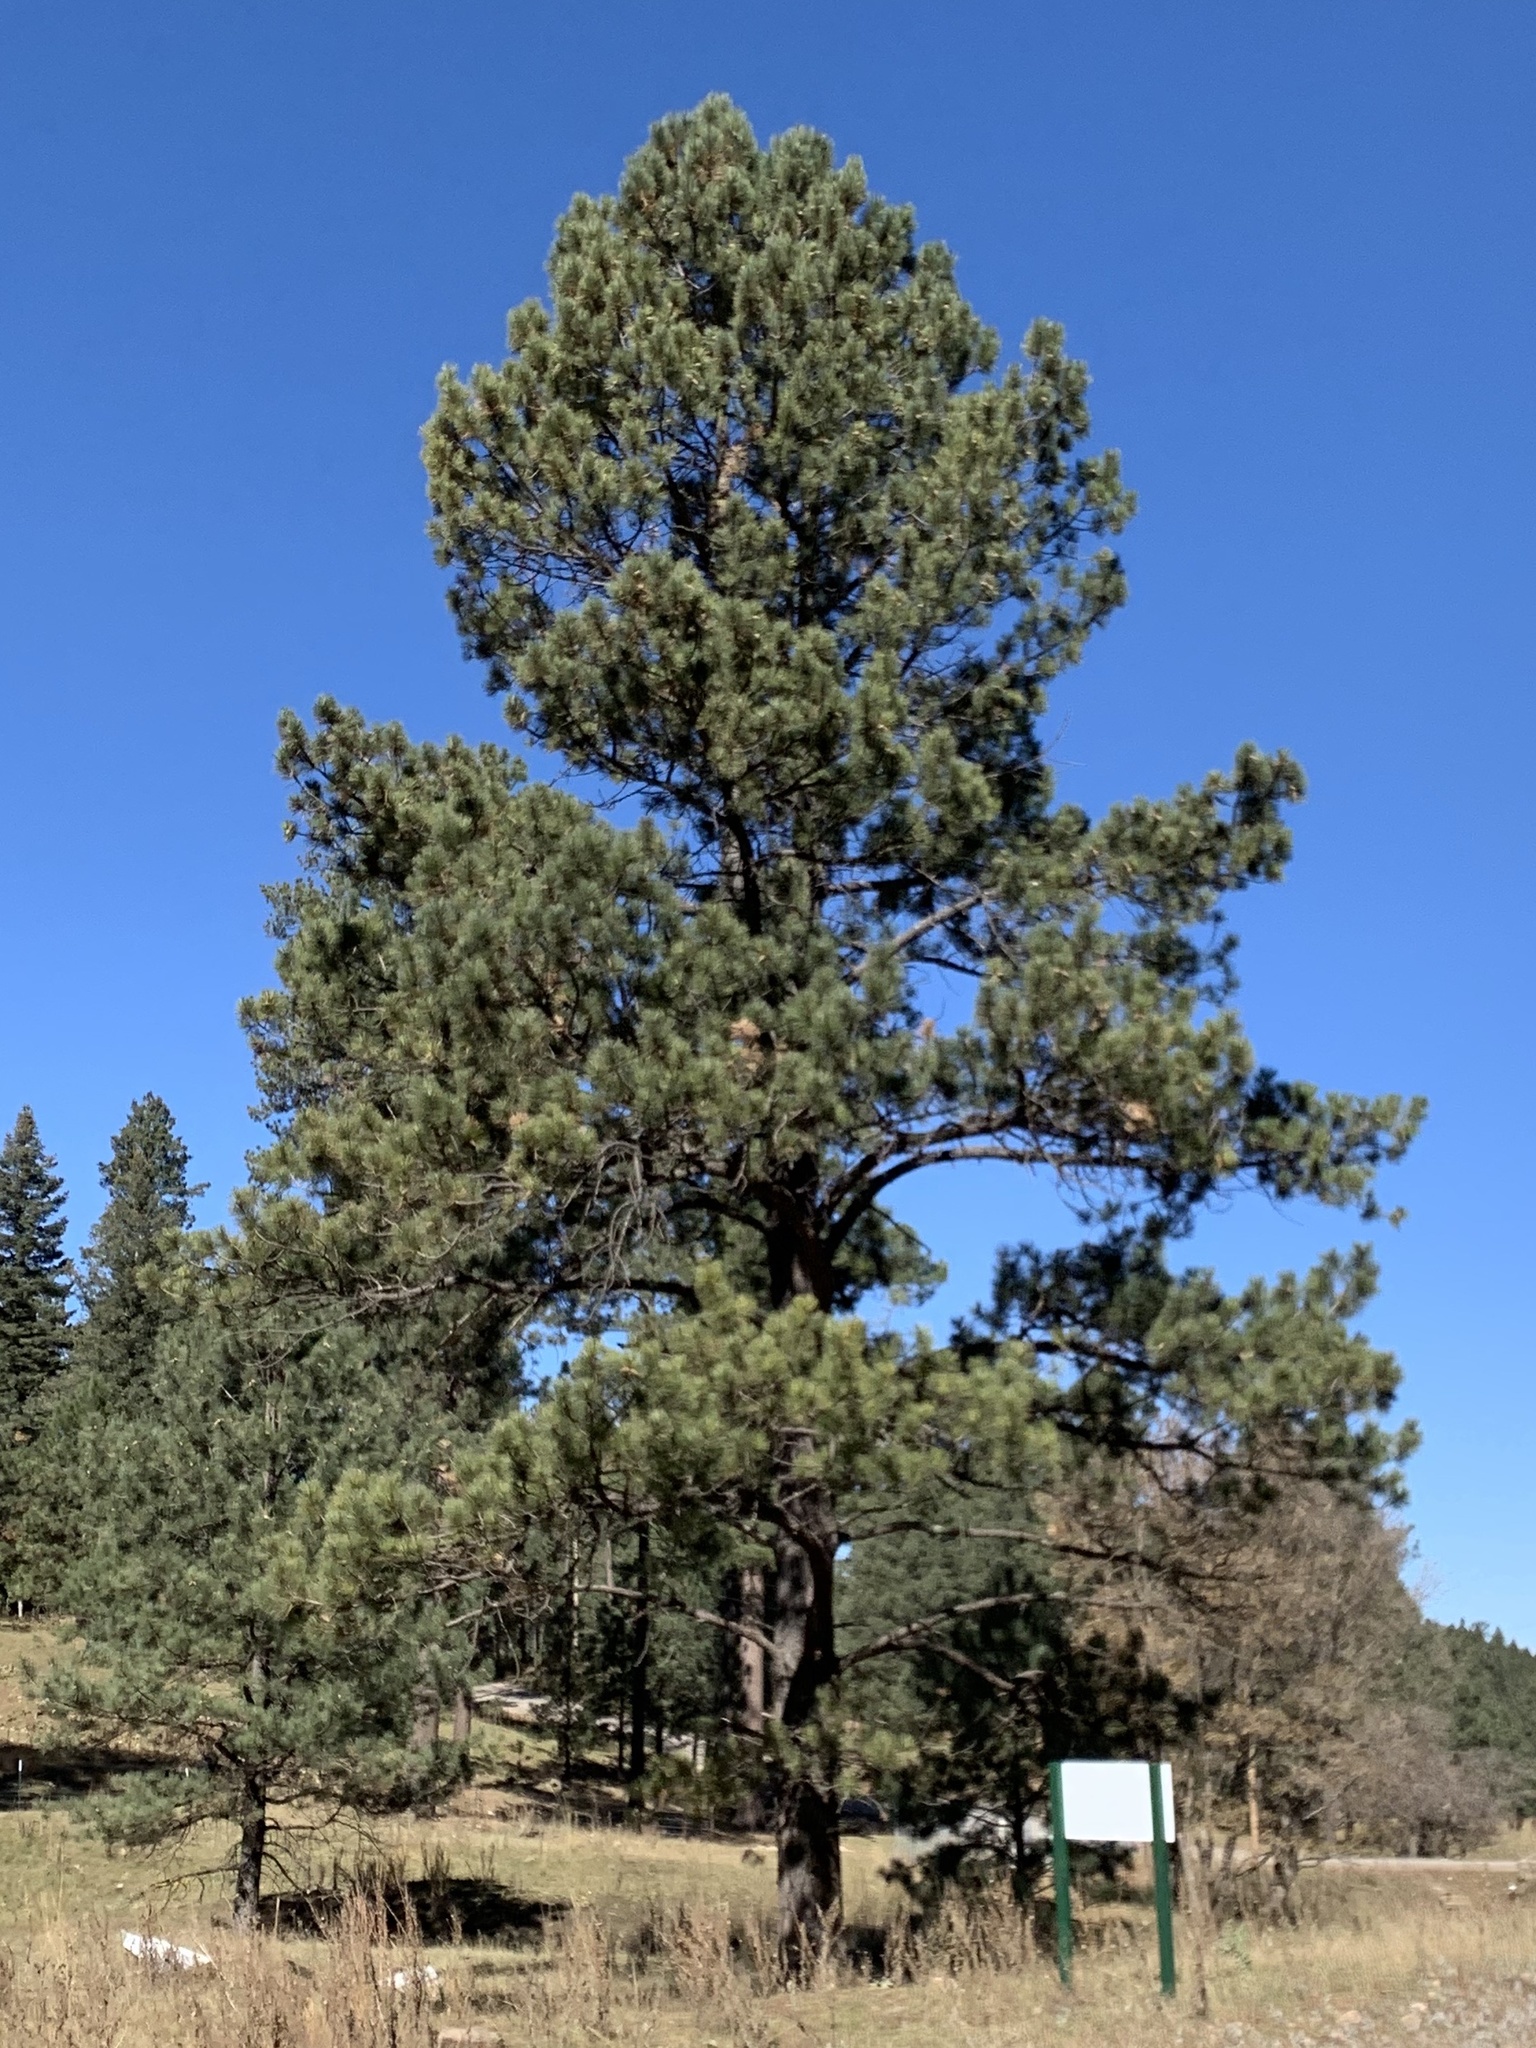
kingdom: Plantae
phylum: Tracheophyta
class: Pinopsida
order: Pinales
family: Pinaceae
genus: Pinus
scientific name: Pinus ponderosa
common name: Western yellow-pine
